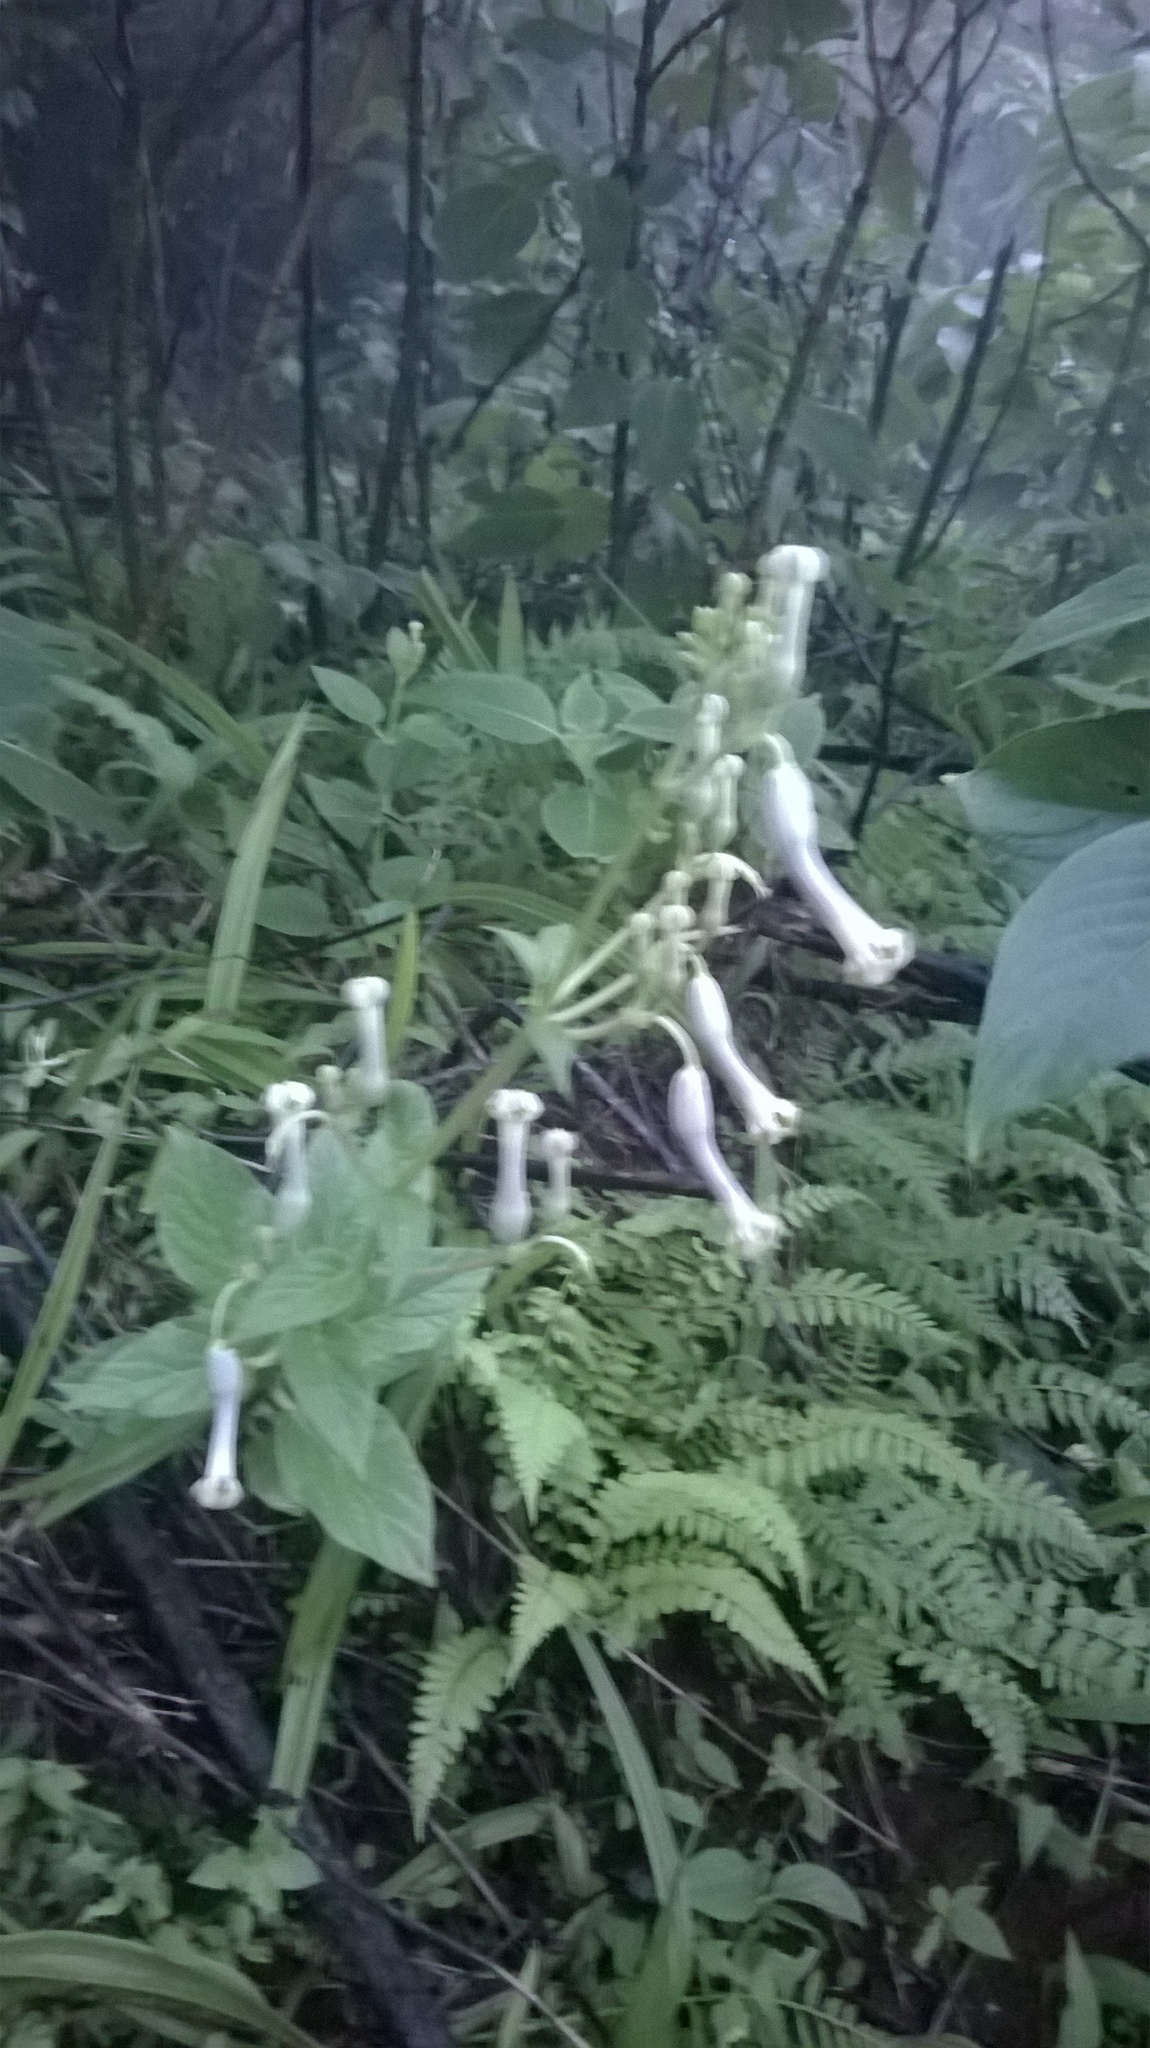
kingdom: Plantae
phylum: Tracheophyta
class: Magnoliopsida
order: Gentianales
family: Apocynaceae
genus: Ceropegia
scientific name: Ceropegia lawii
